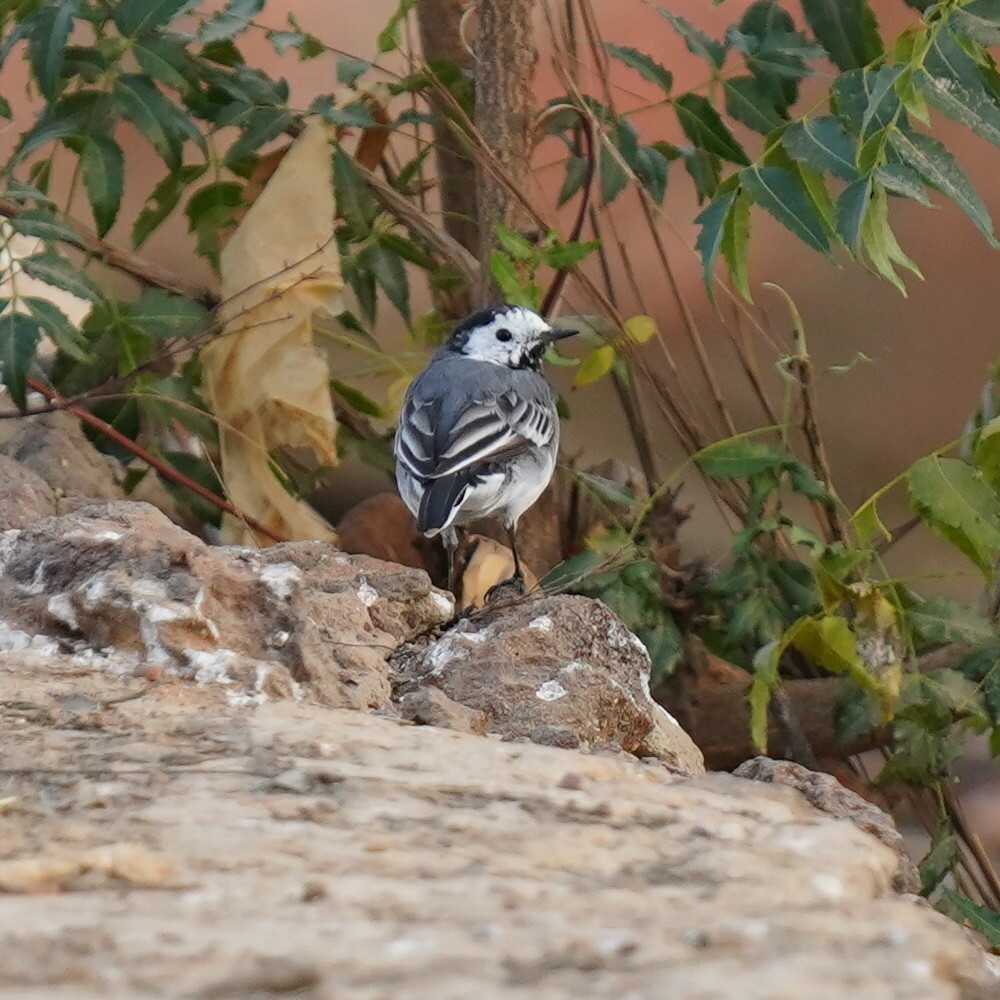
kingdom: Animalia
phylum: Chordata
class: Aves
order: Passeriformes
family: Motacillidae
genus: Motacilla
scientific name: Motacilla alba
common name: White wagtail
